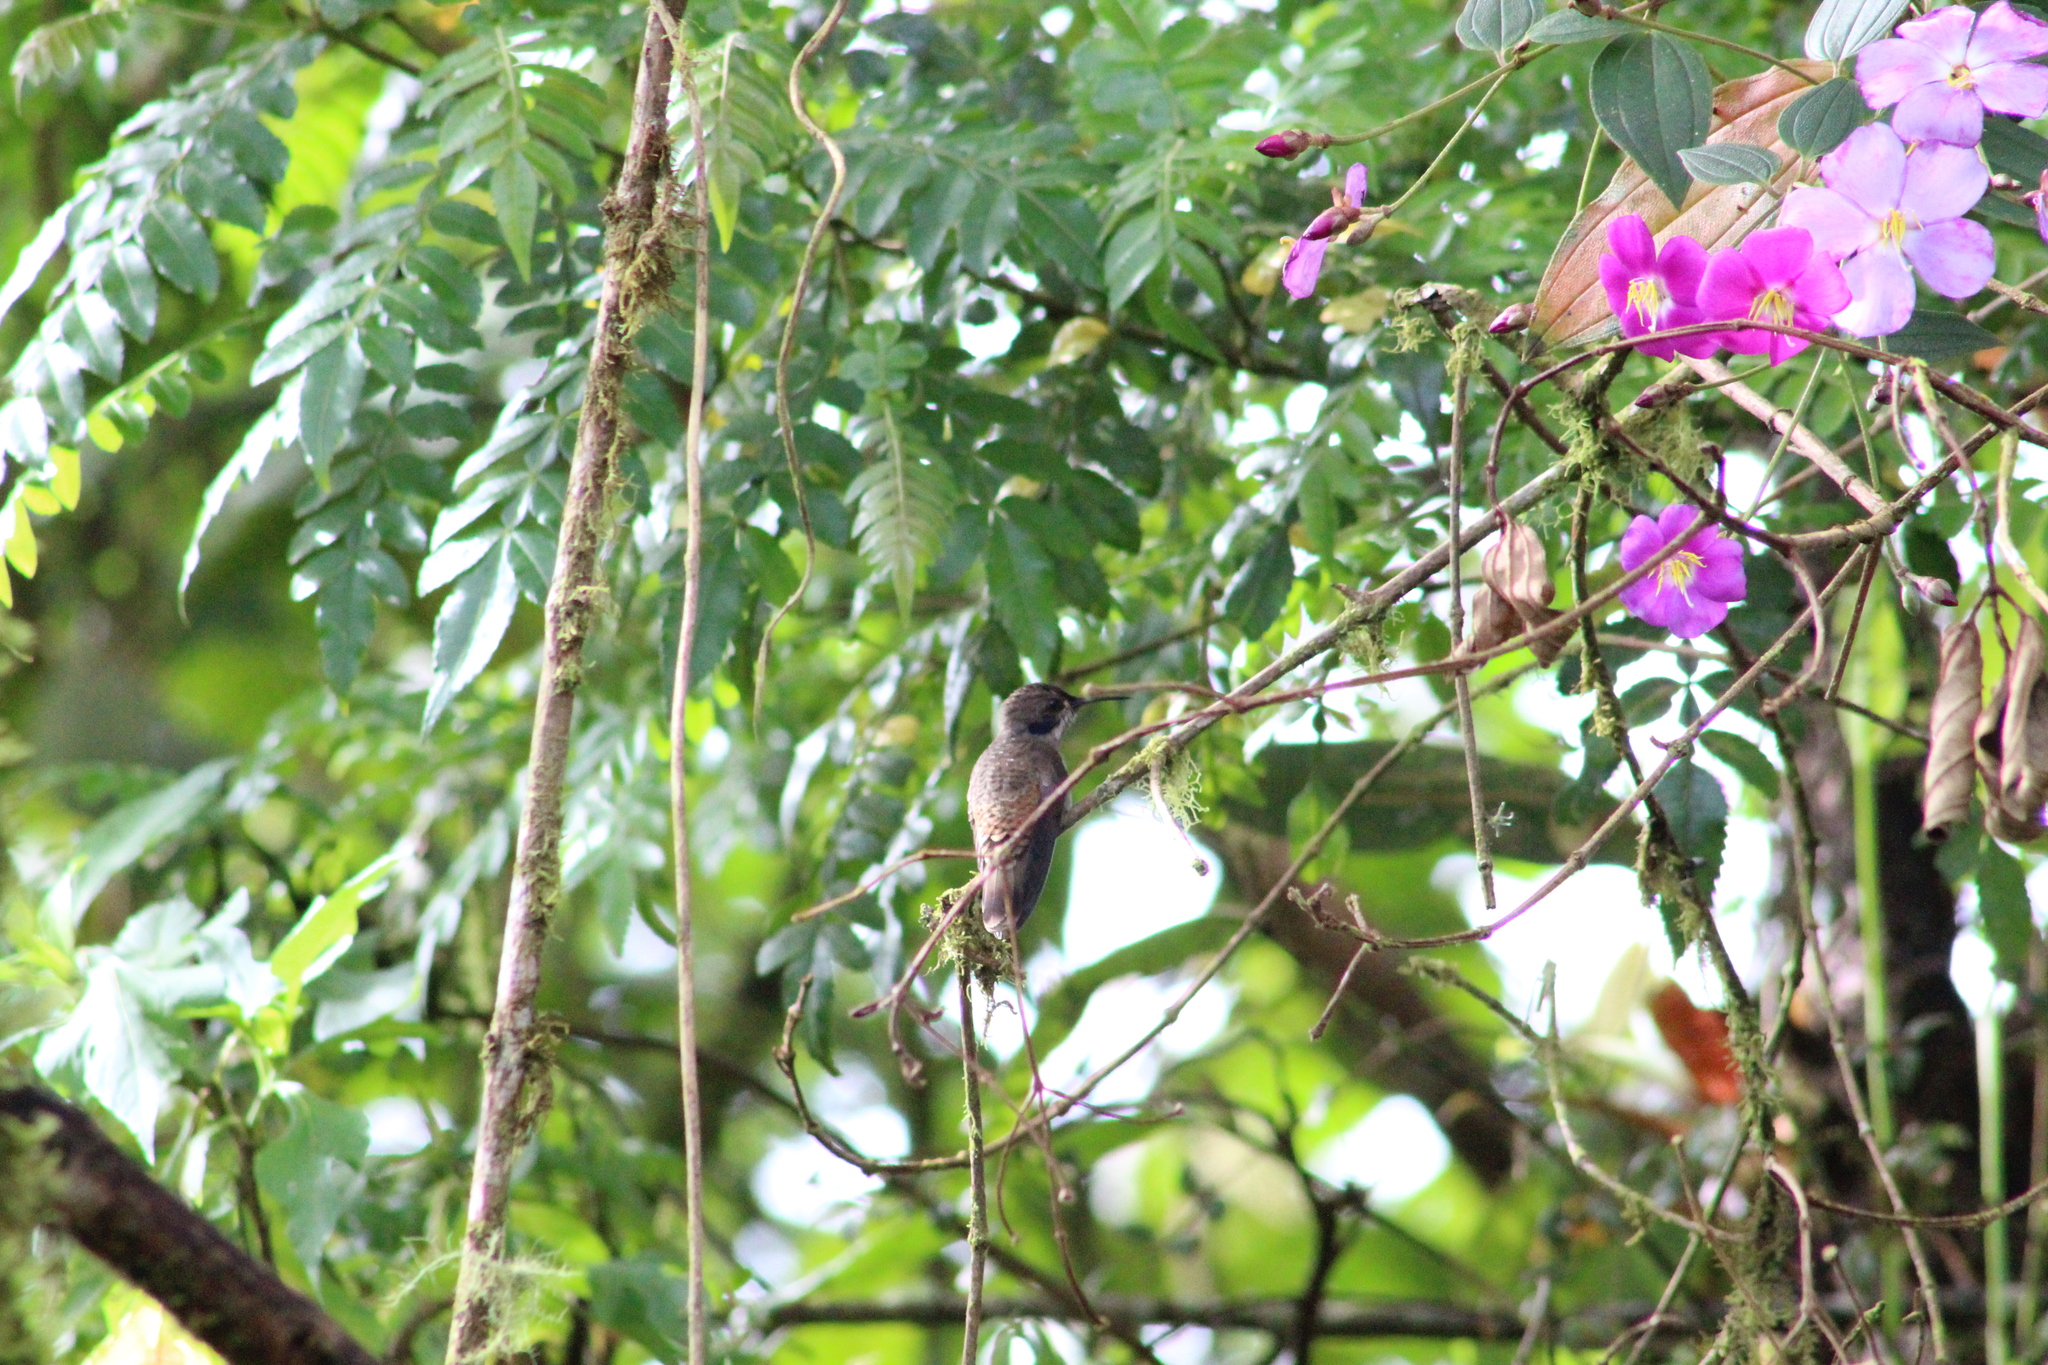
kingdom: Animalia
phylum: Chordata
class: Aves
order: Apodiformes
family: Trochilidae
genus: Colibri
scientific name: Colibri delphinae
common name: Brown violetear
